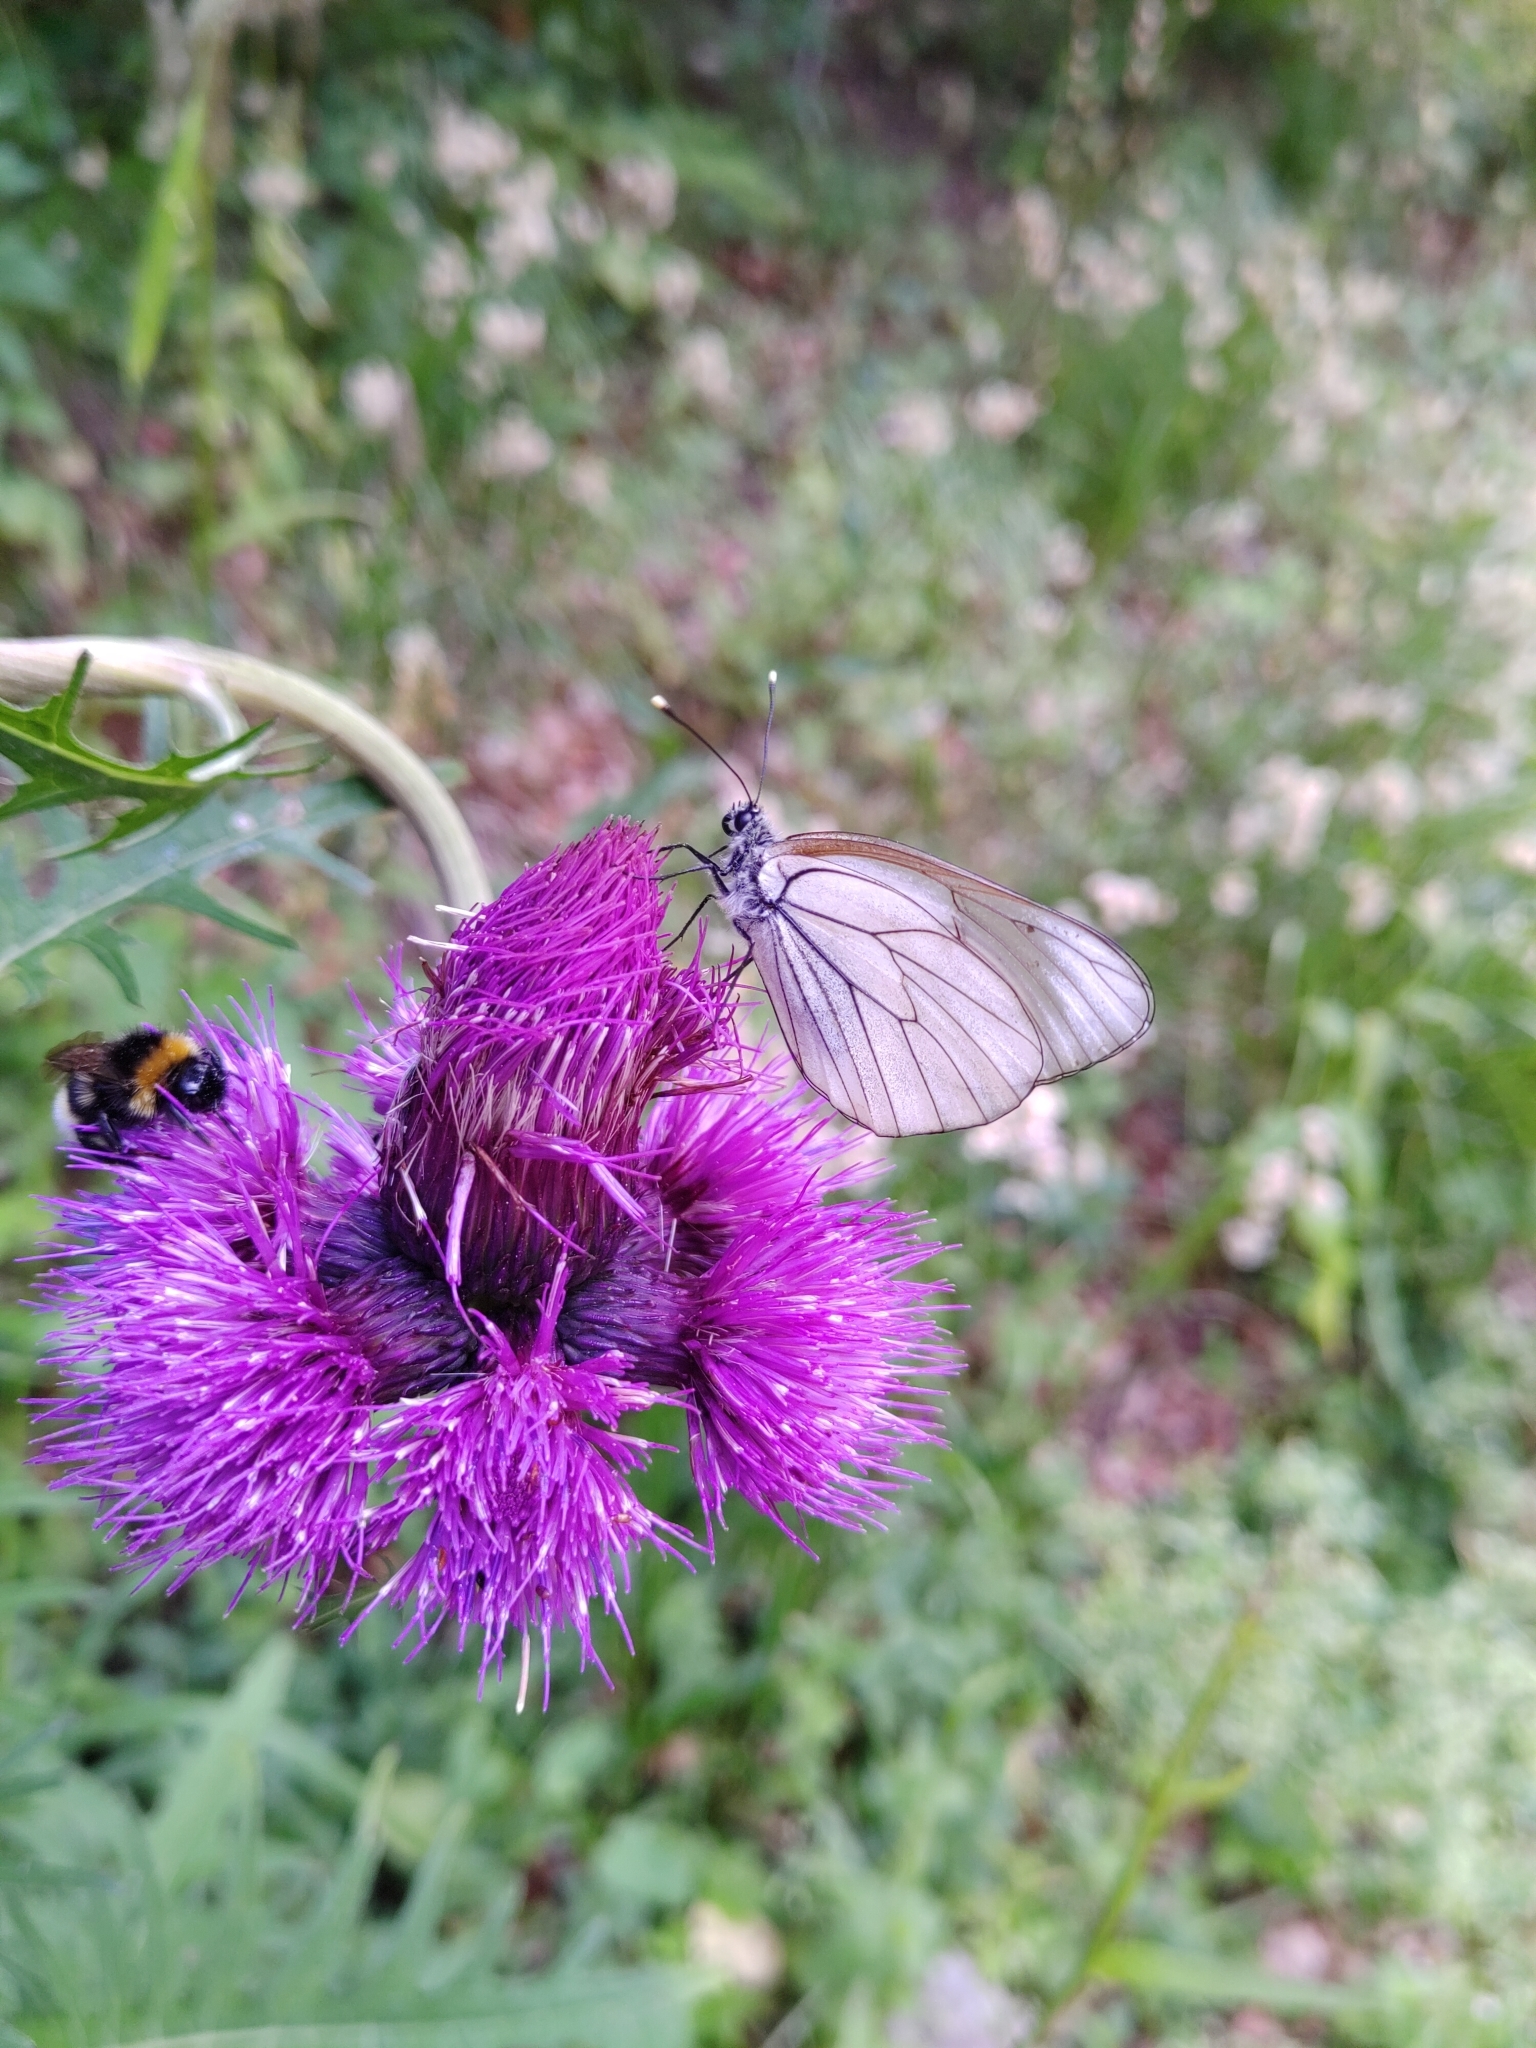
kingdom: Animalia
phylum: Arthropoda
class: Insecta
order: Lepidoptera
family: Pieridae
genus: Aporia
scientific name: Aporia crataegi
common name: Black-veined white
